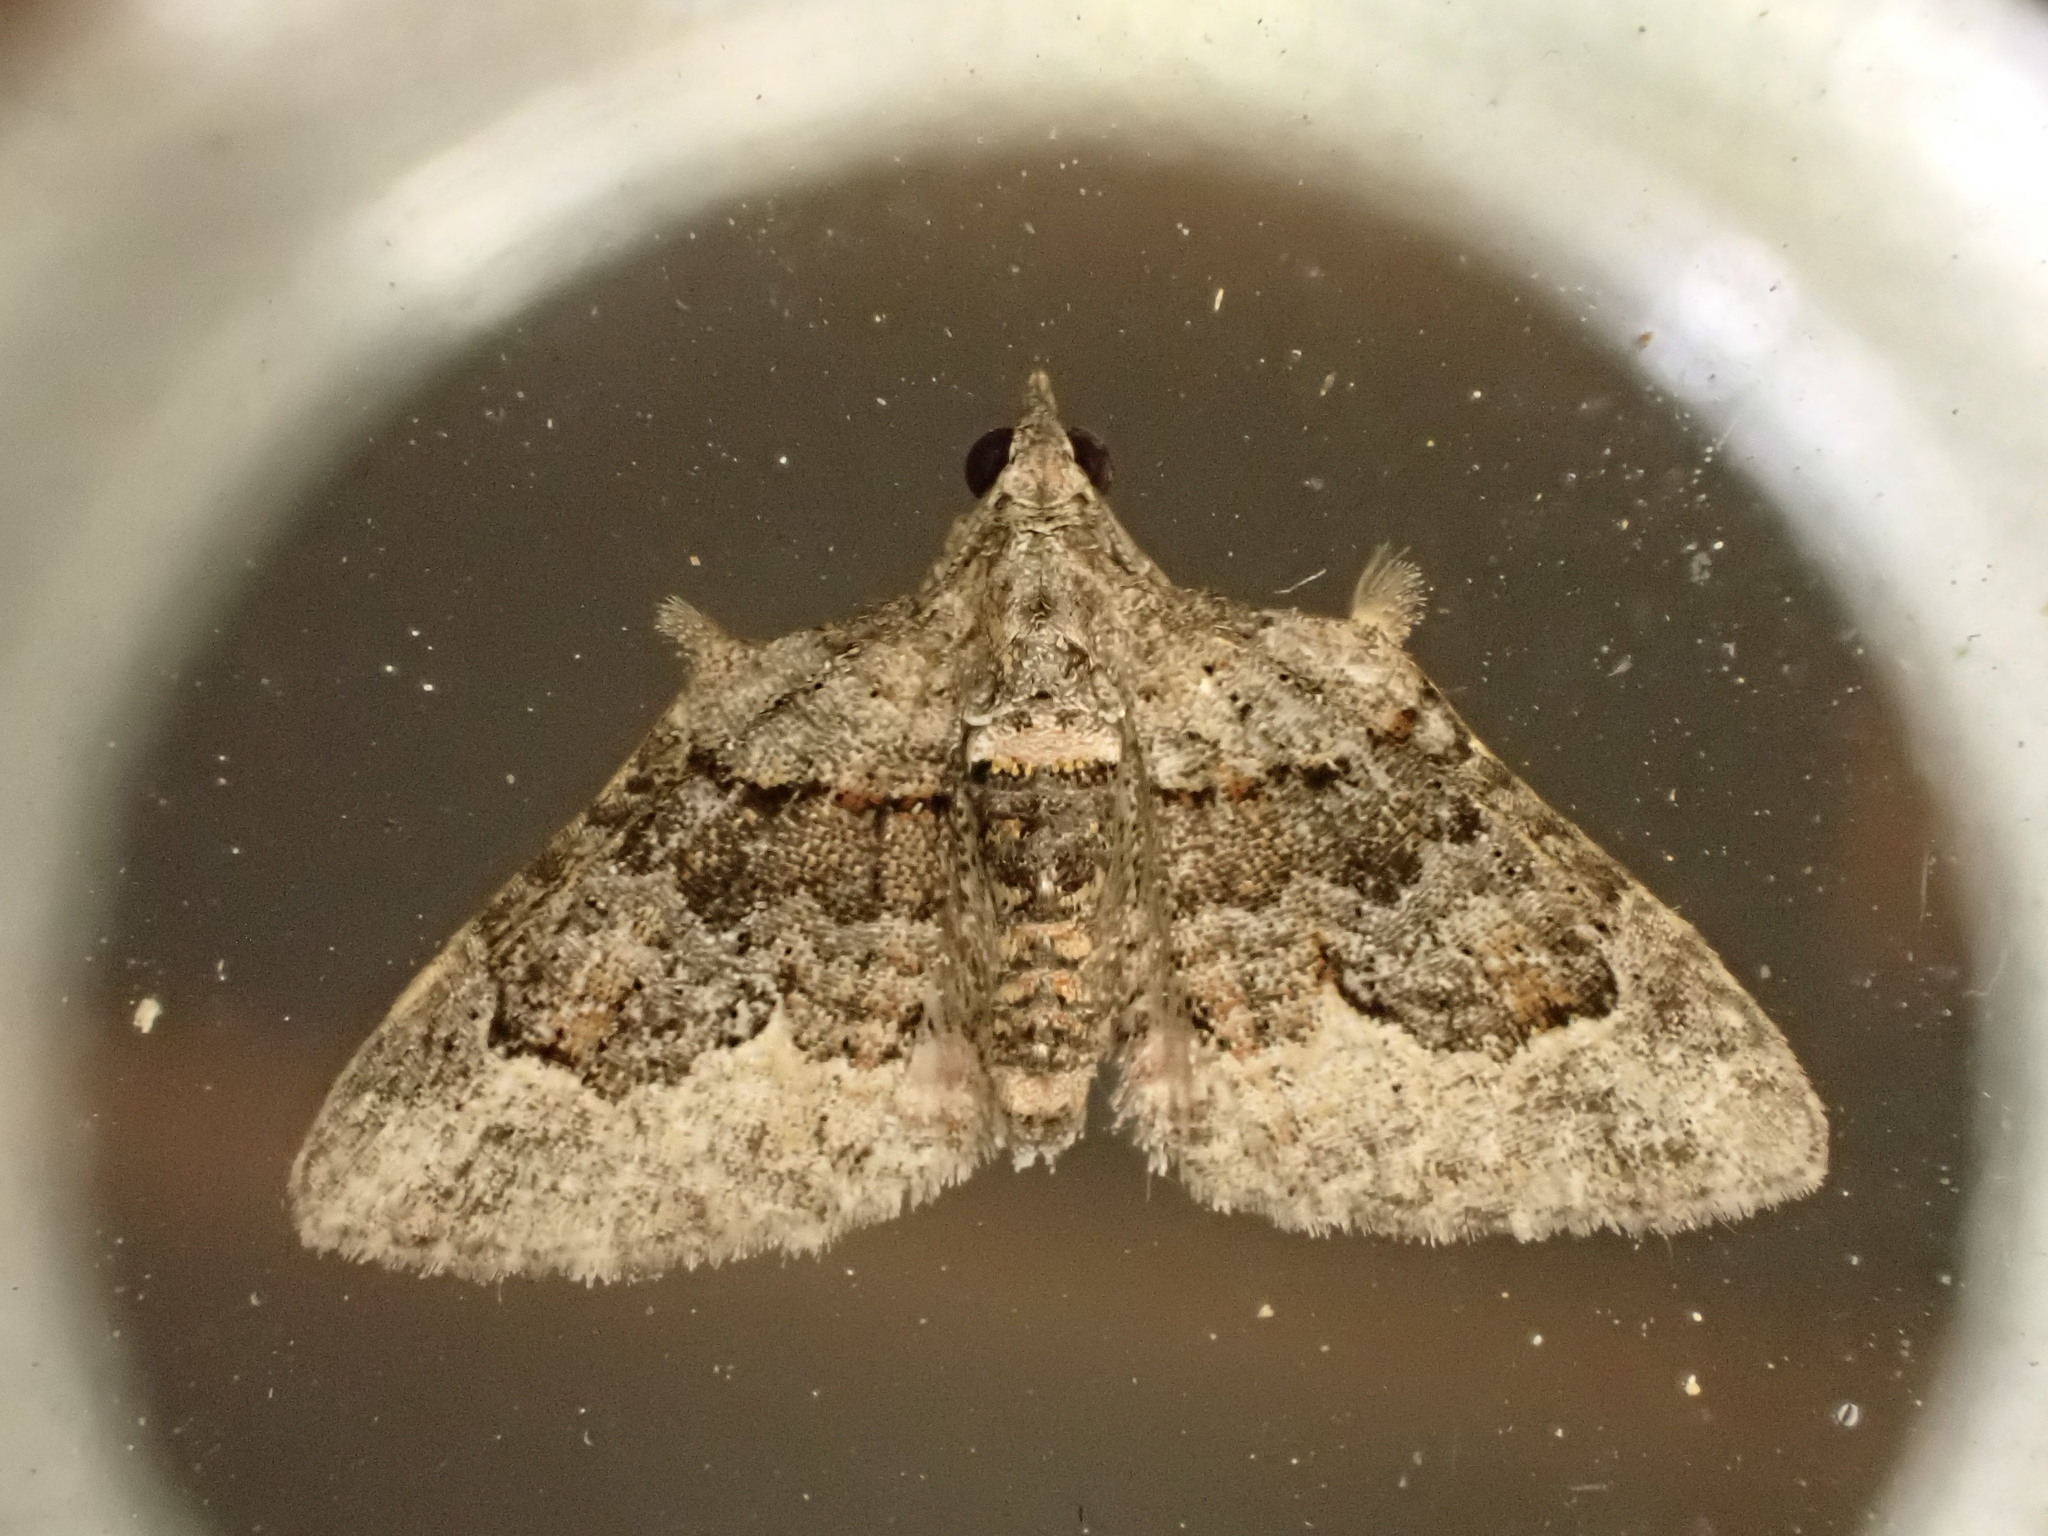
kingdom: Animalia
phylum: Arthropoda
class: Insecta
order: Lepidoptera
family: Geometridae
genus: Phrissogonus
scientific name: Phrissogonus laticostata
